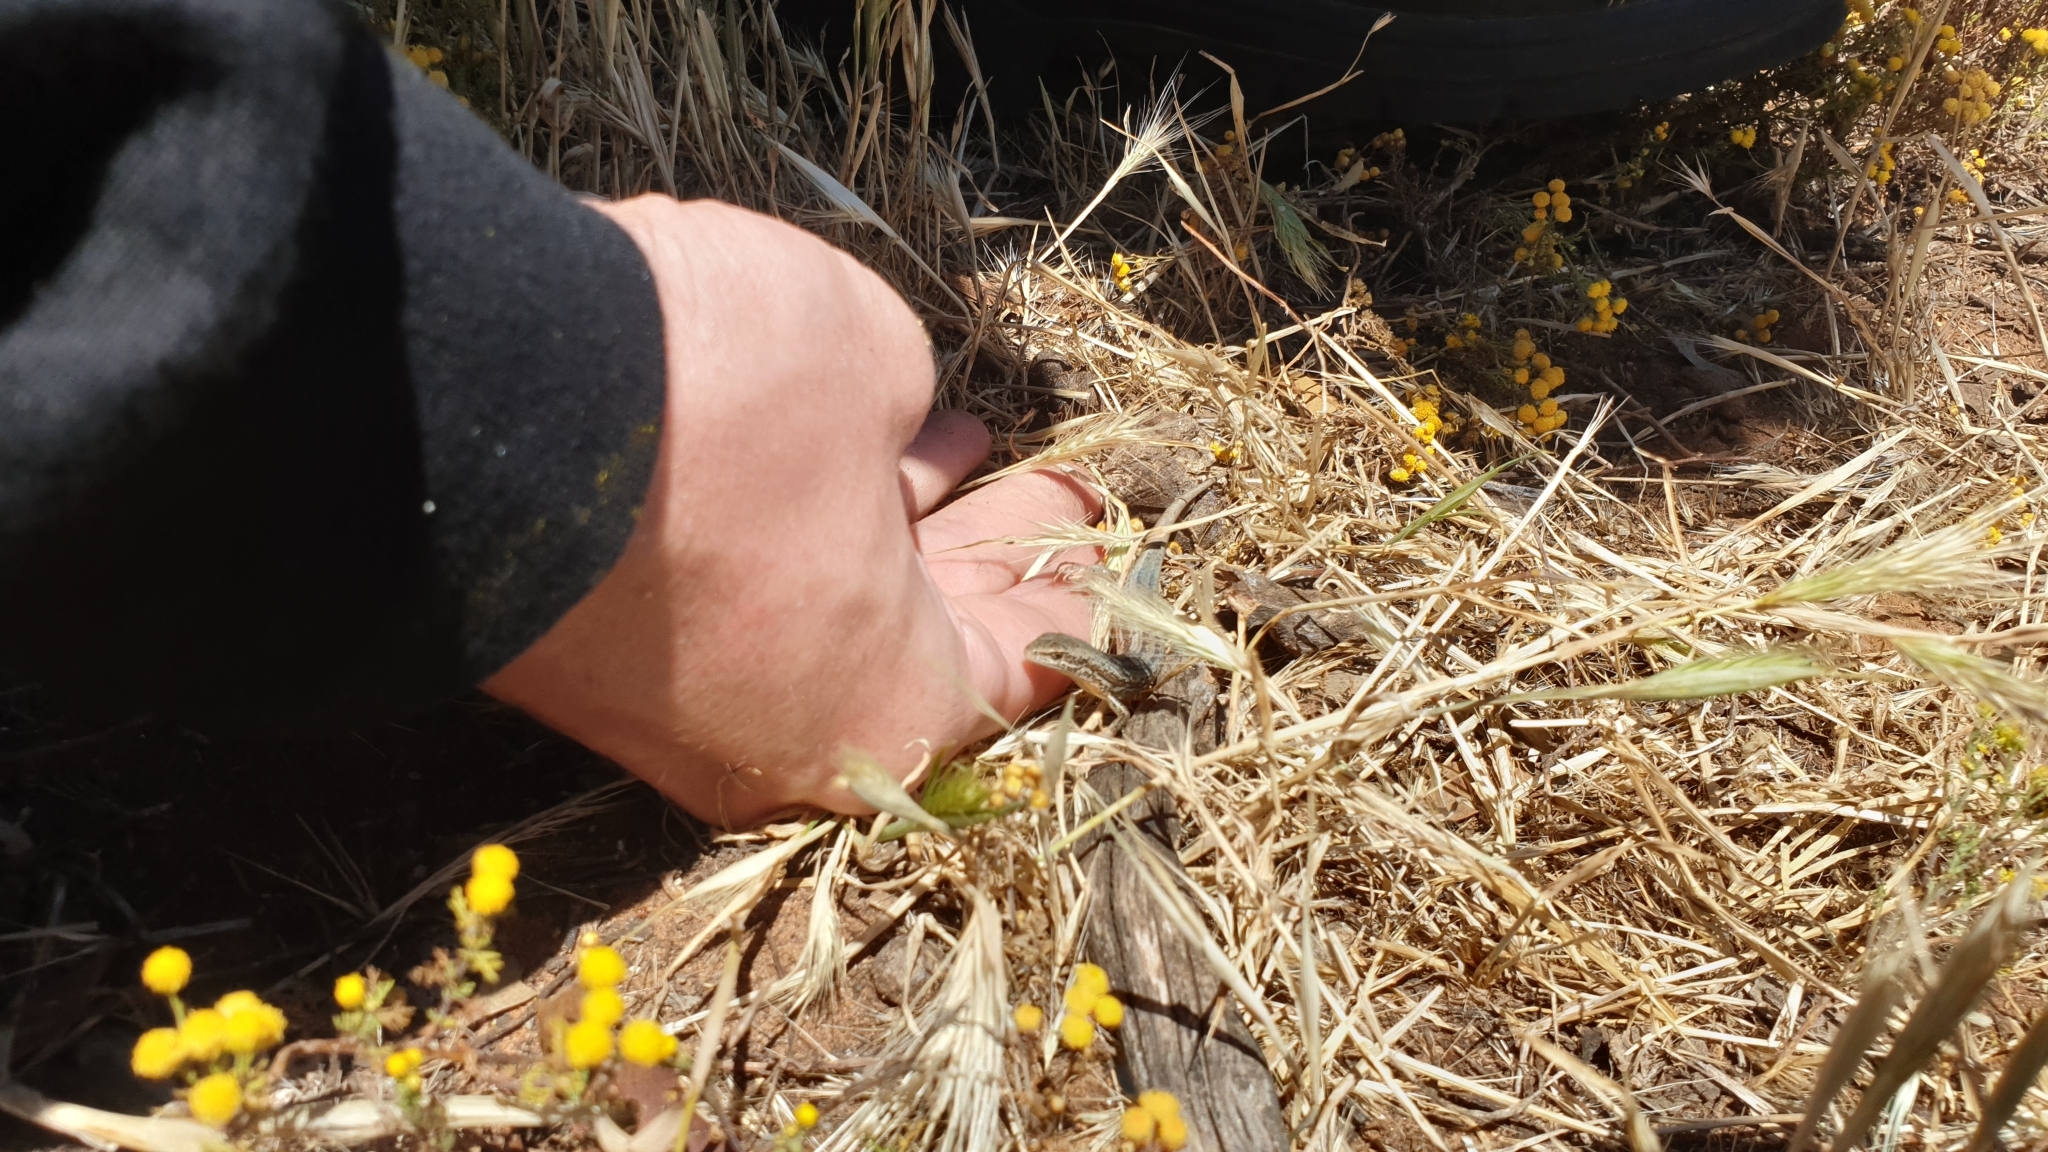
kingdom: Animalia
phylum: Chordata
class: Squamata
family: Scincidae
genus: Morethia
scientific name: Morethia adelaidensis
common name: Saltbush morethia skink
